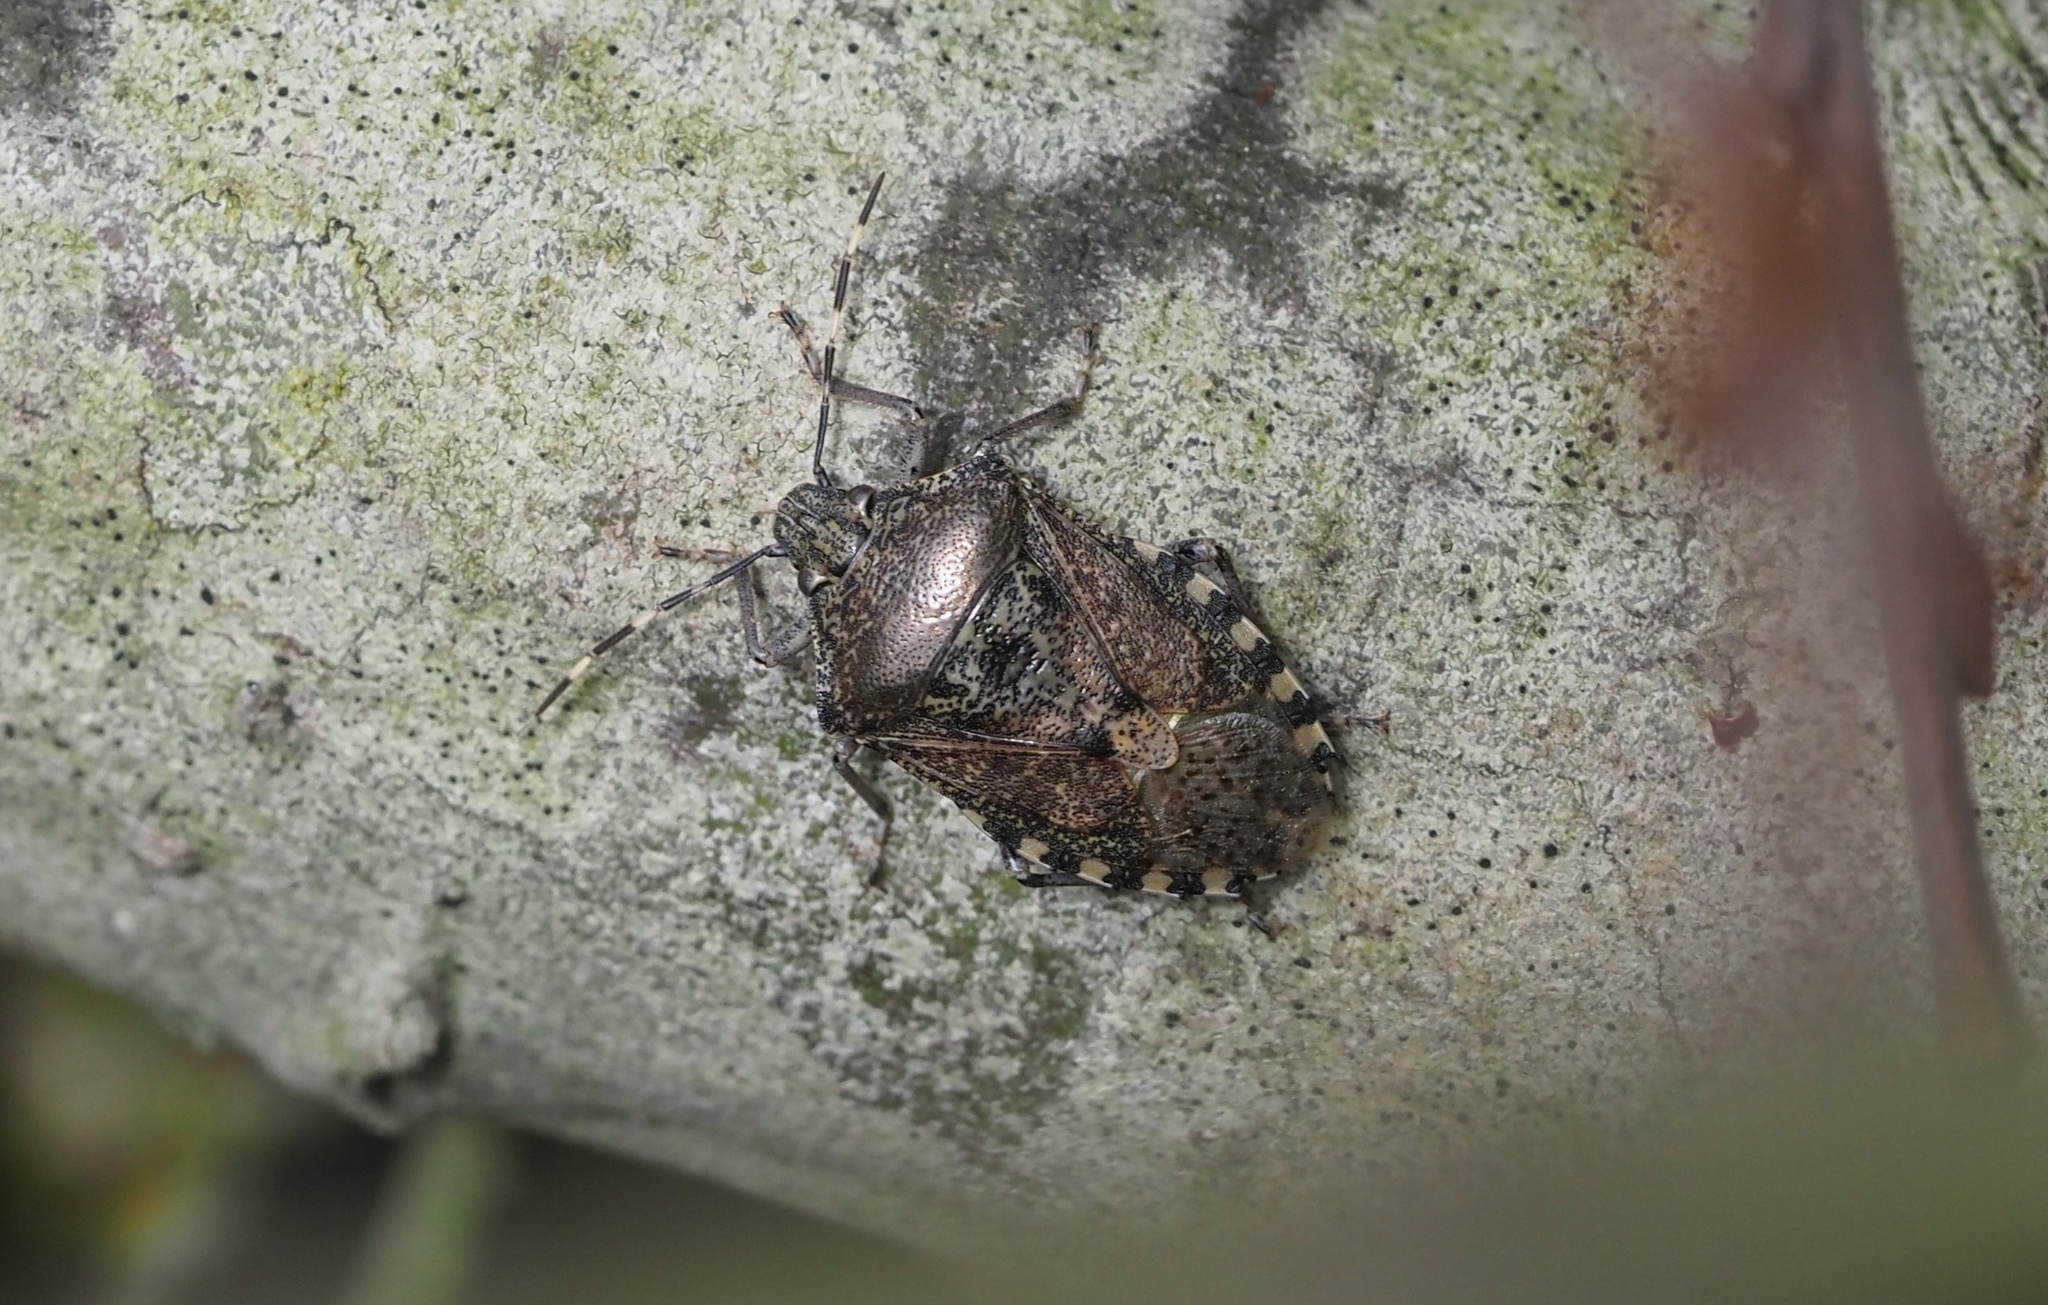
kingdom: Animalia
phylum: Arthropoda
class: Insecta
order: Hemiptera
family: Pentatomidae
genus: Rhaphigaster
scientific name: Rhaphigaster nebulosa
